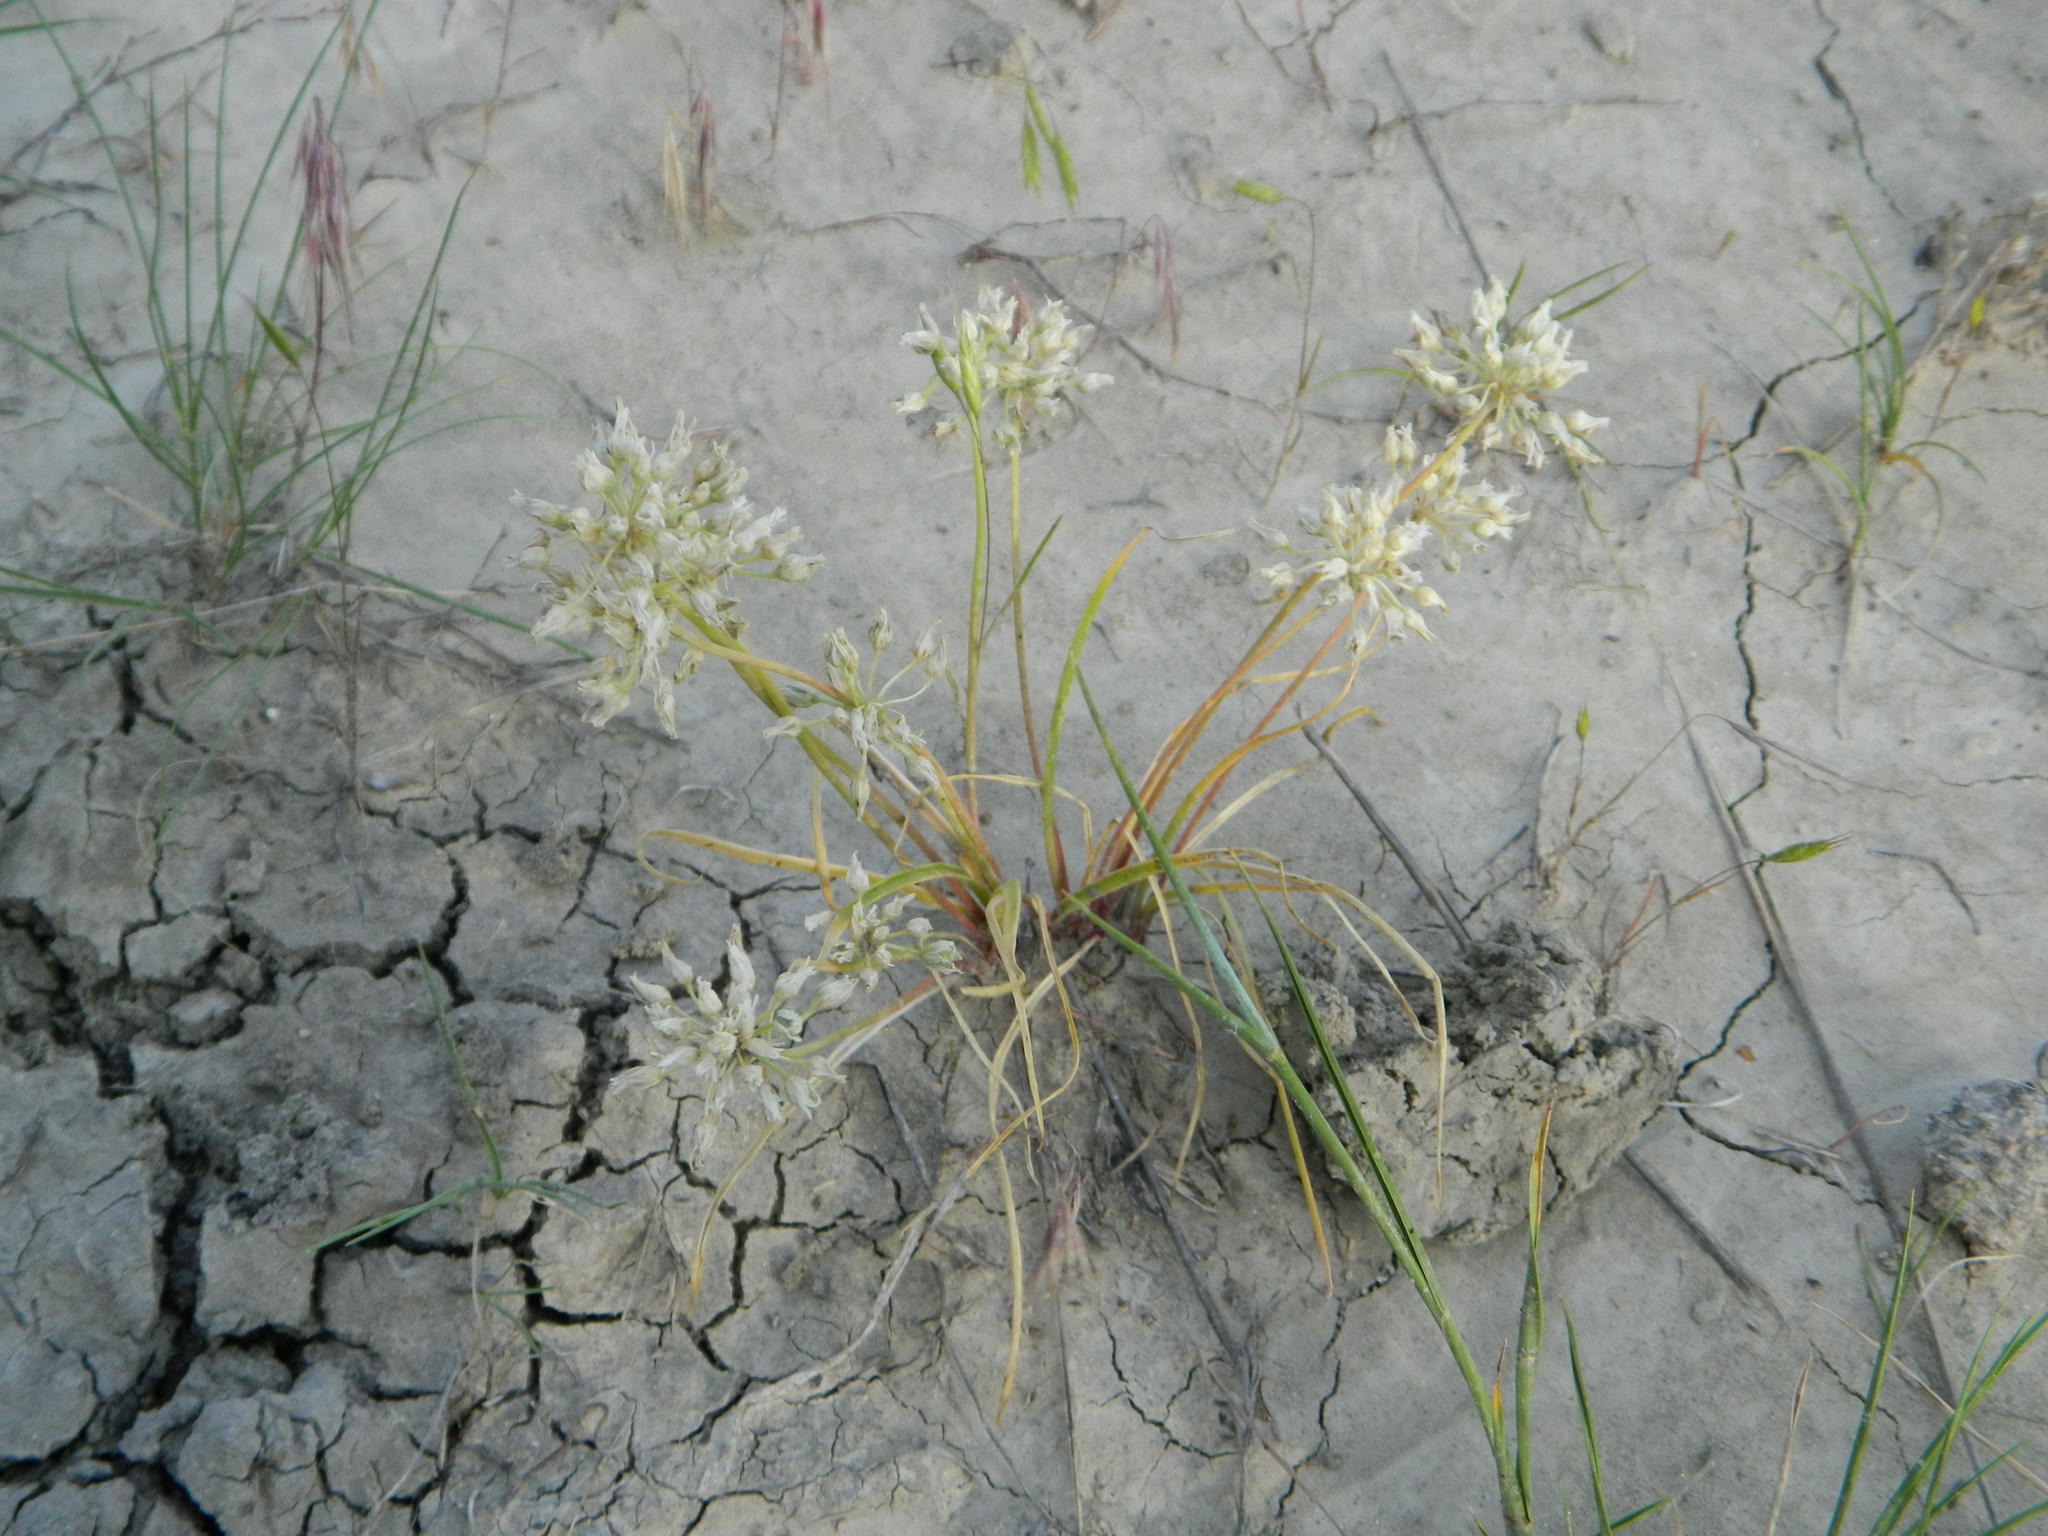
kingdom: Plantae
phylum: Tracheophyta
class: Liliopsida
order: Asparagales
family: Amaryllidaceae
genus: Allium
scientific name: Allium textile
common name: Prairie onion
